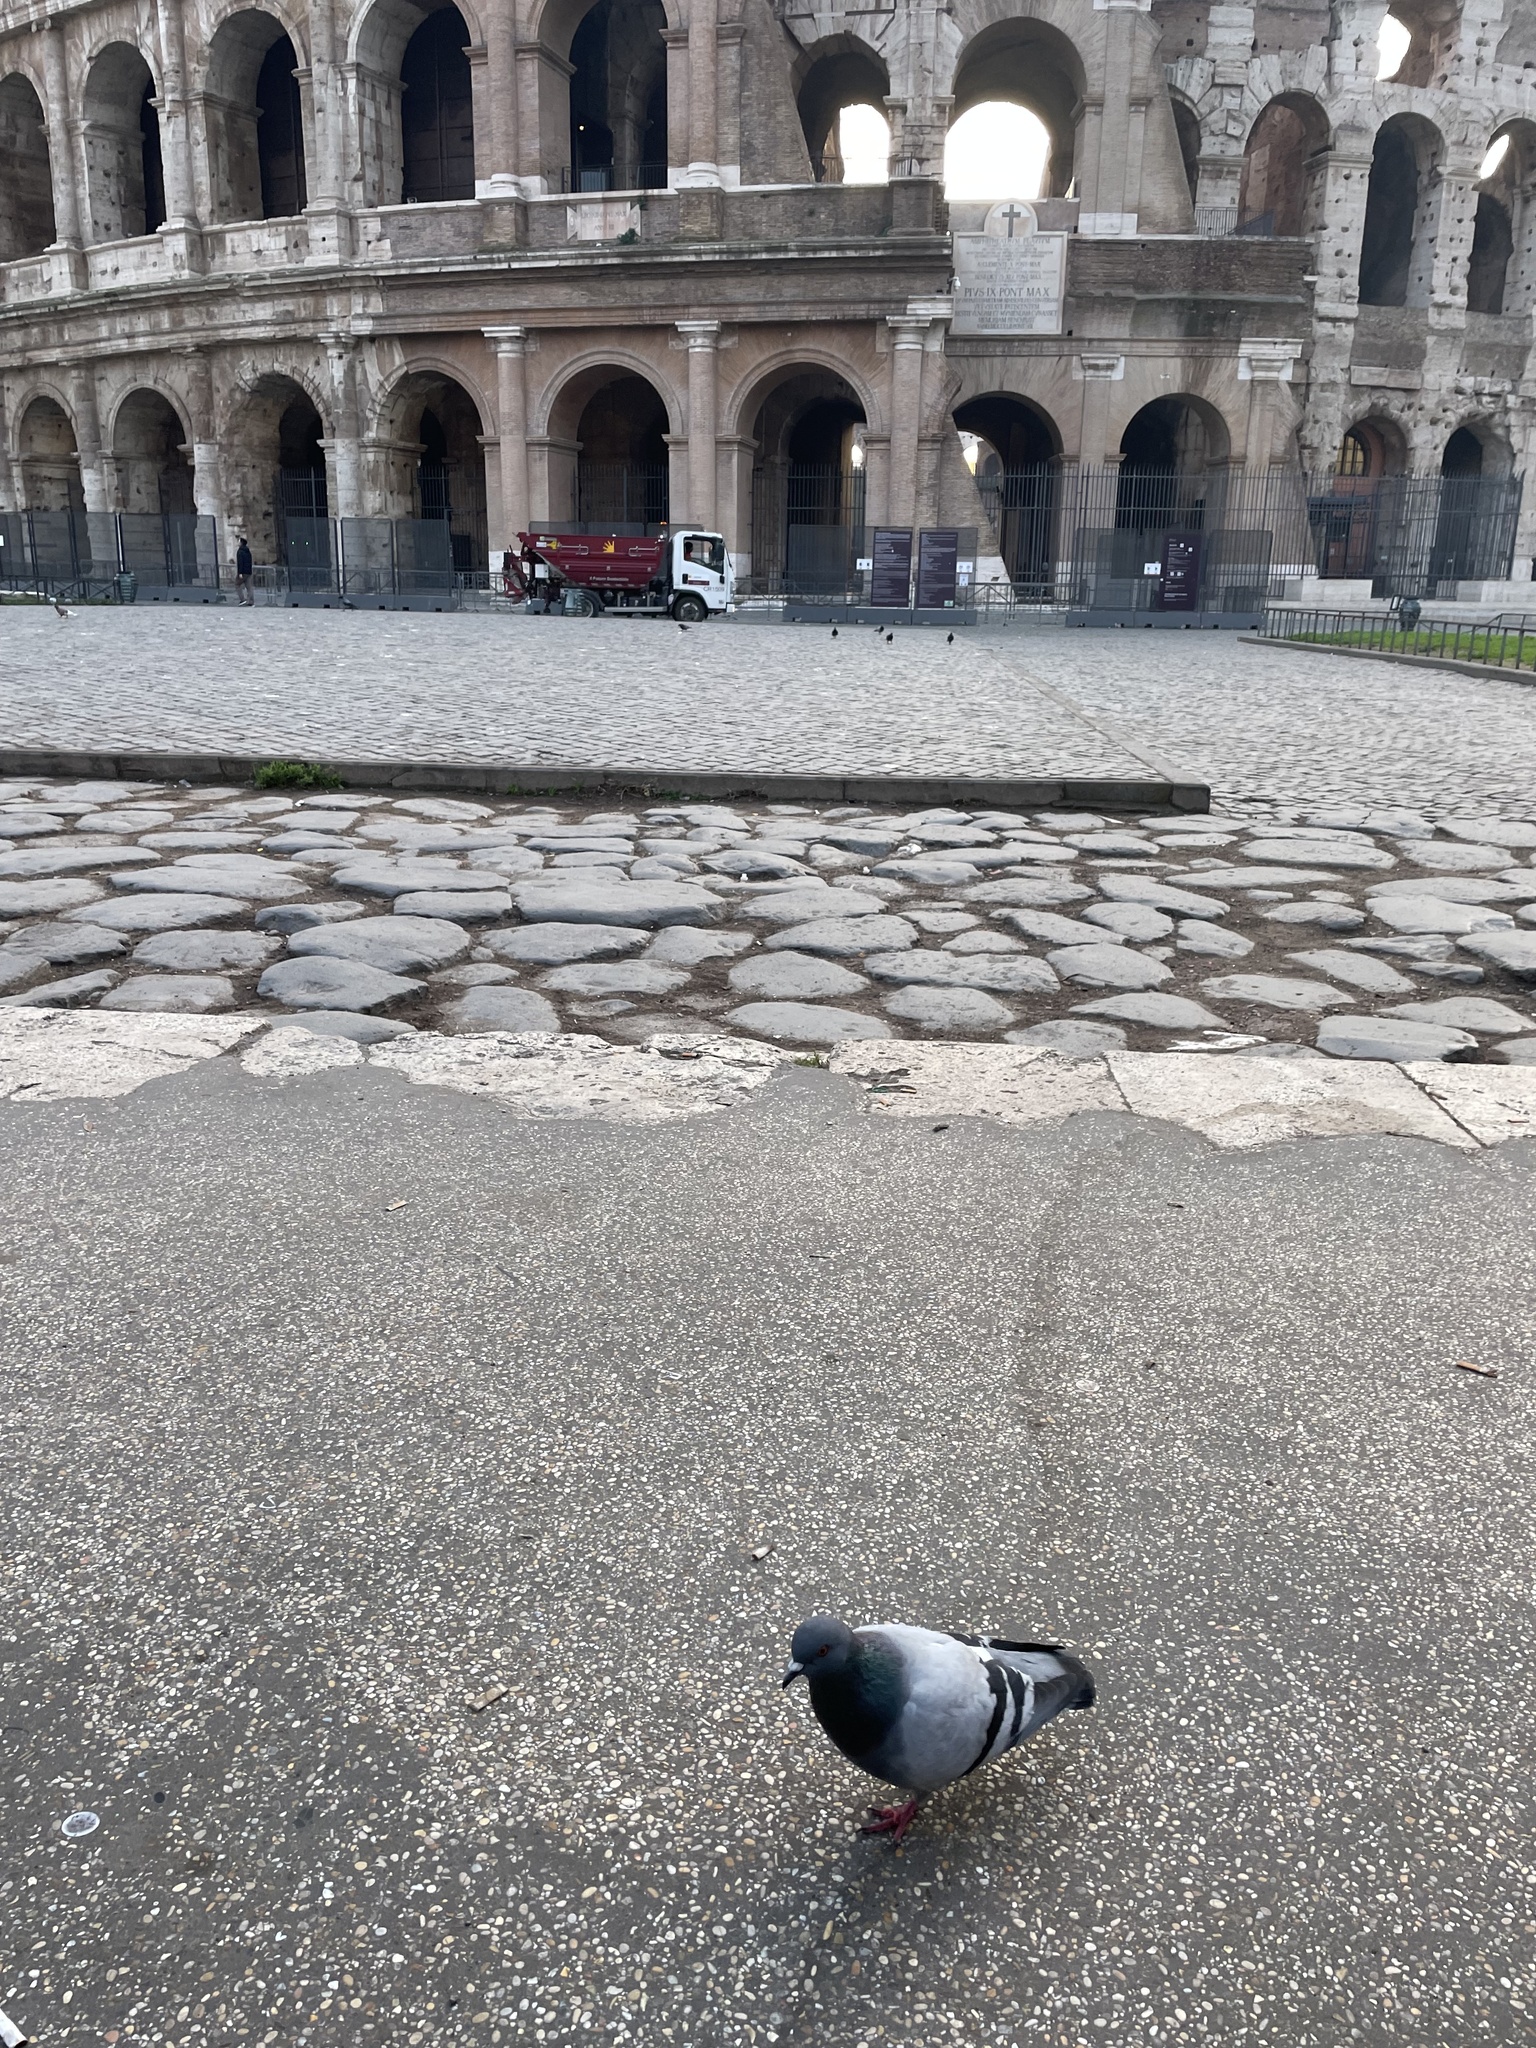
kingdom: Animalia
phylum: Chordata
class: Aves
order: Columbiformes
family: Columbidae
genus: Columba
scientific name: Columba livia
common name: Rock pigeon
